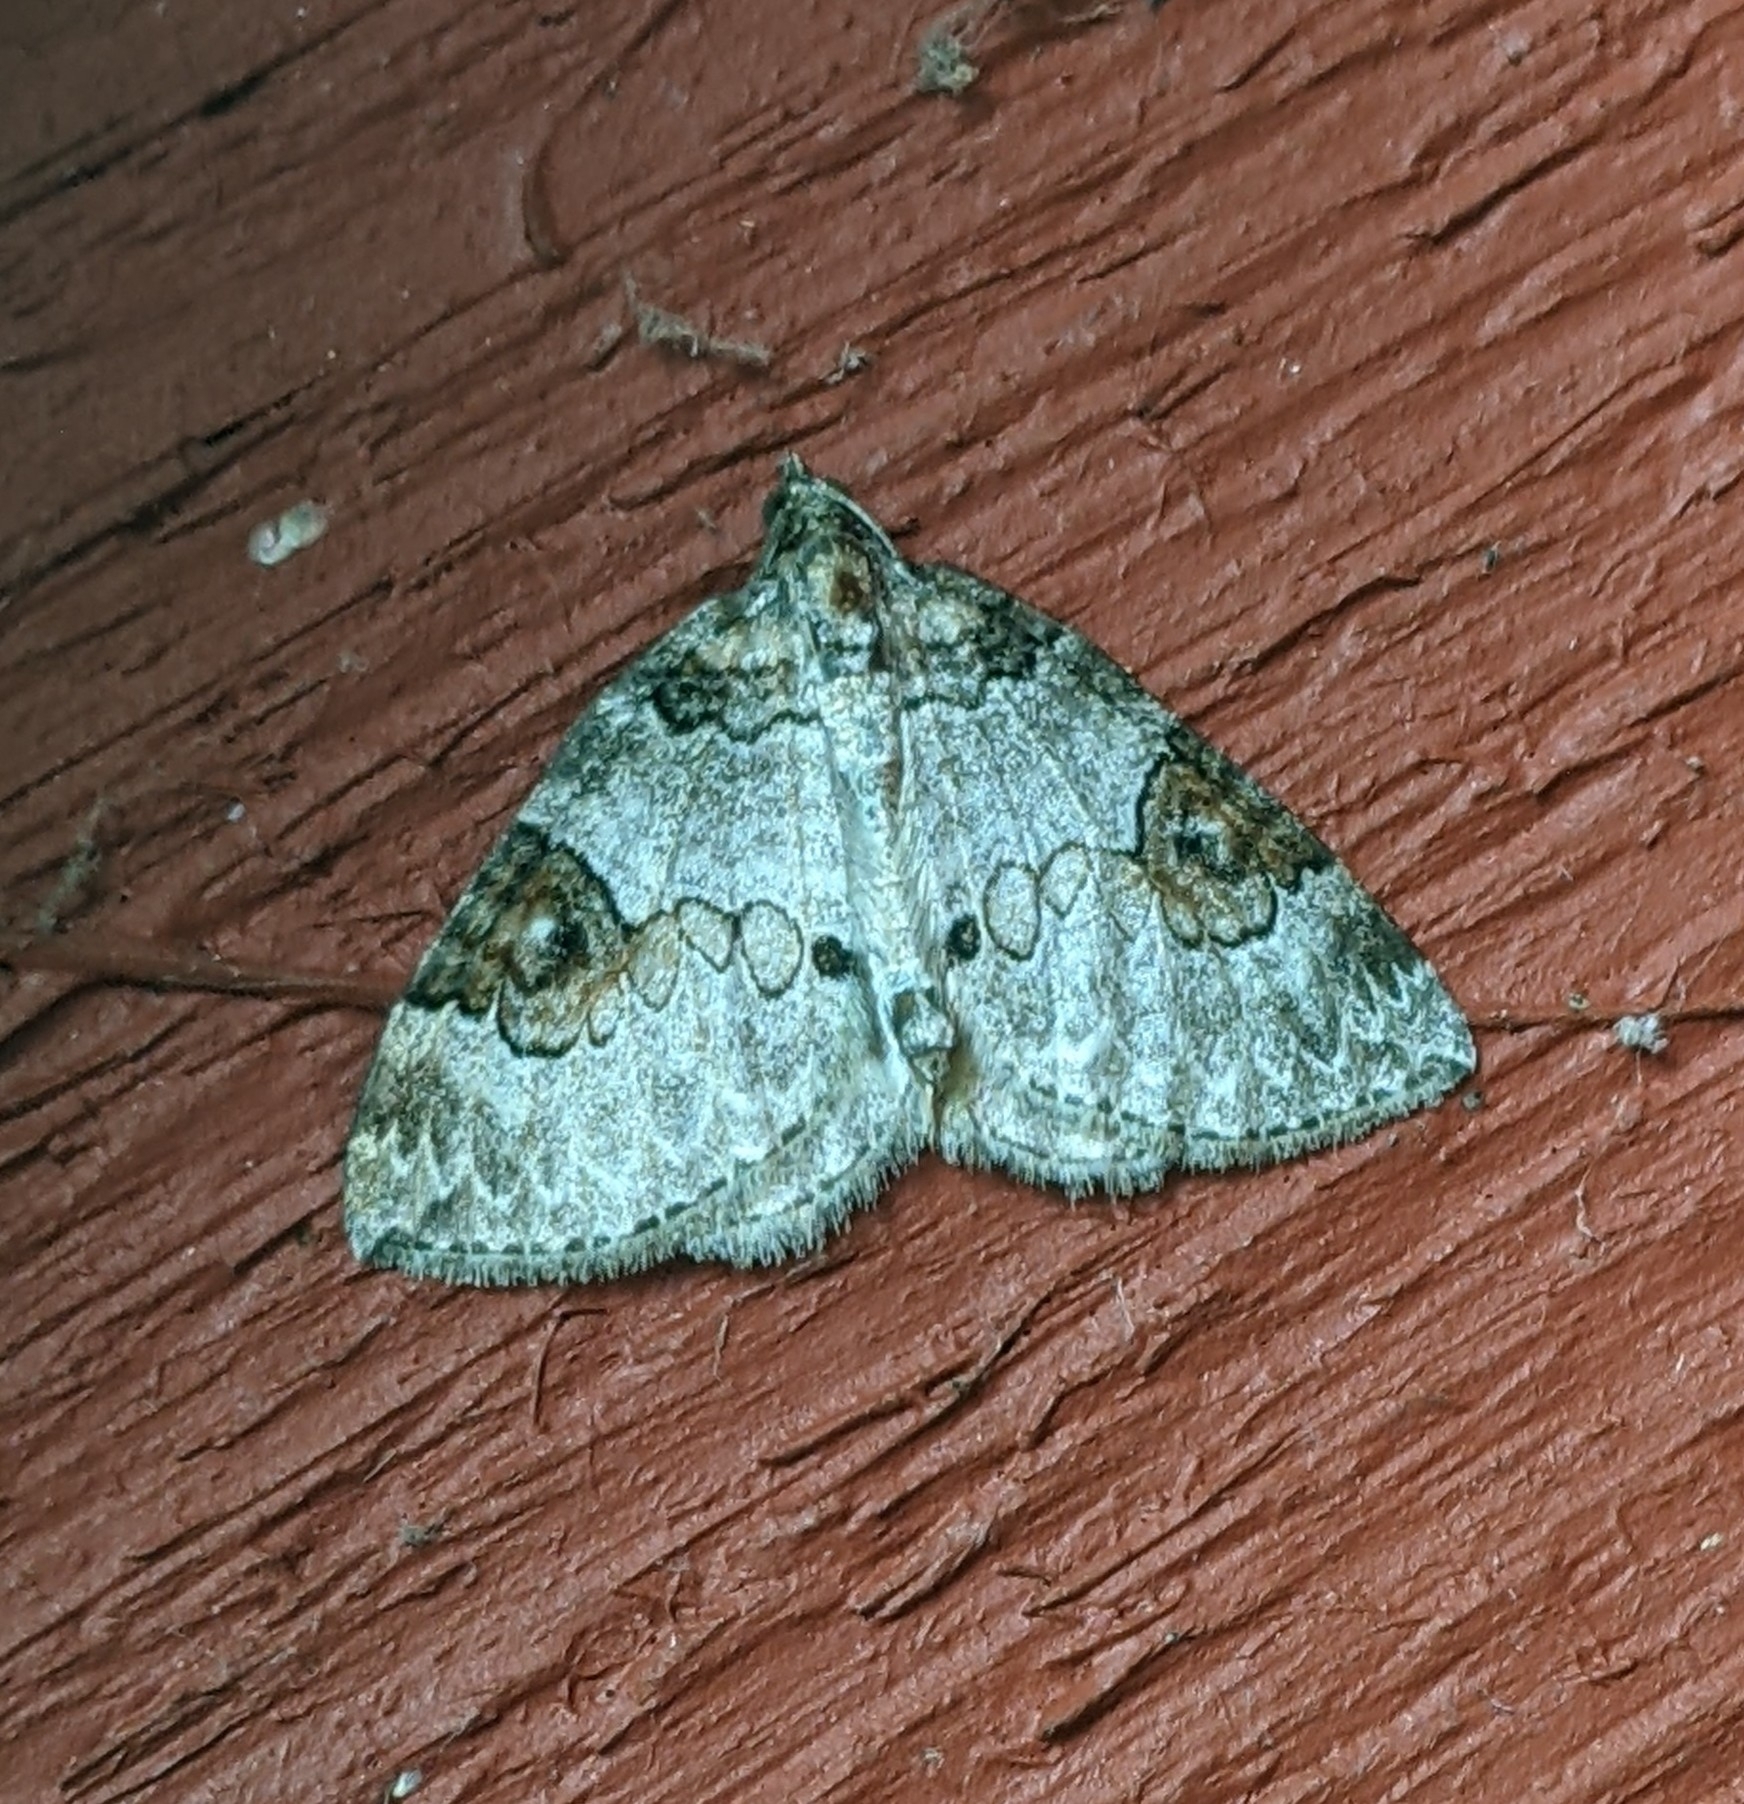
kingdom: Animalia
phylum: Arthropoda
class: Insecta
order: Lepidoptera
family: Geometridae
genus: Plemyria
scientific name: Plemyria georgii
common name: George's carpet moth
